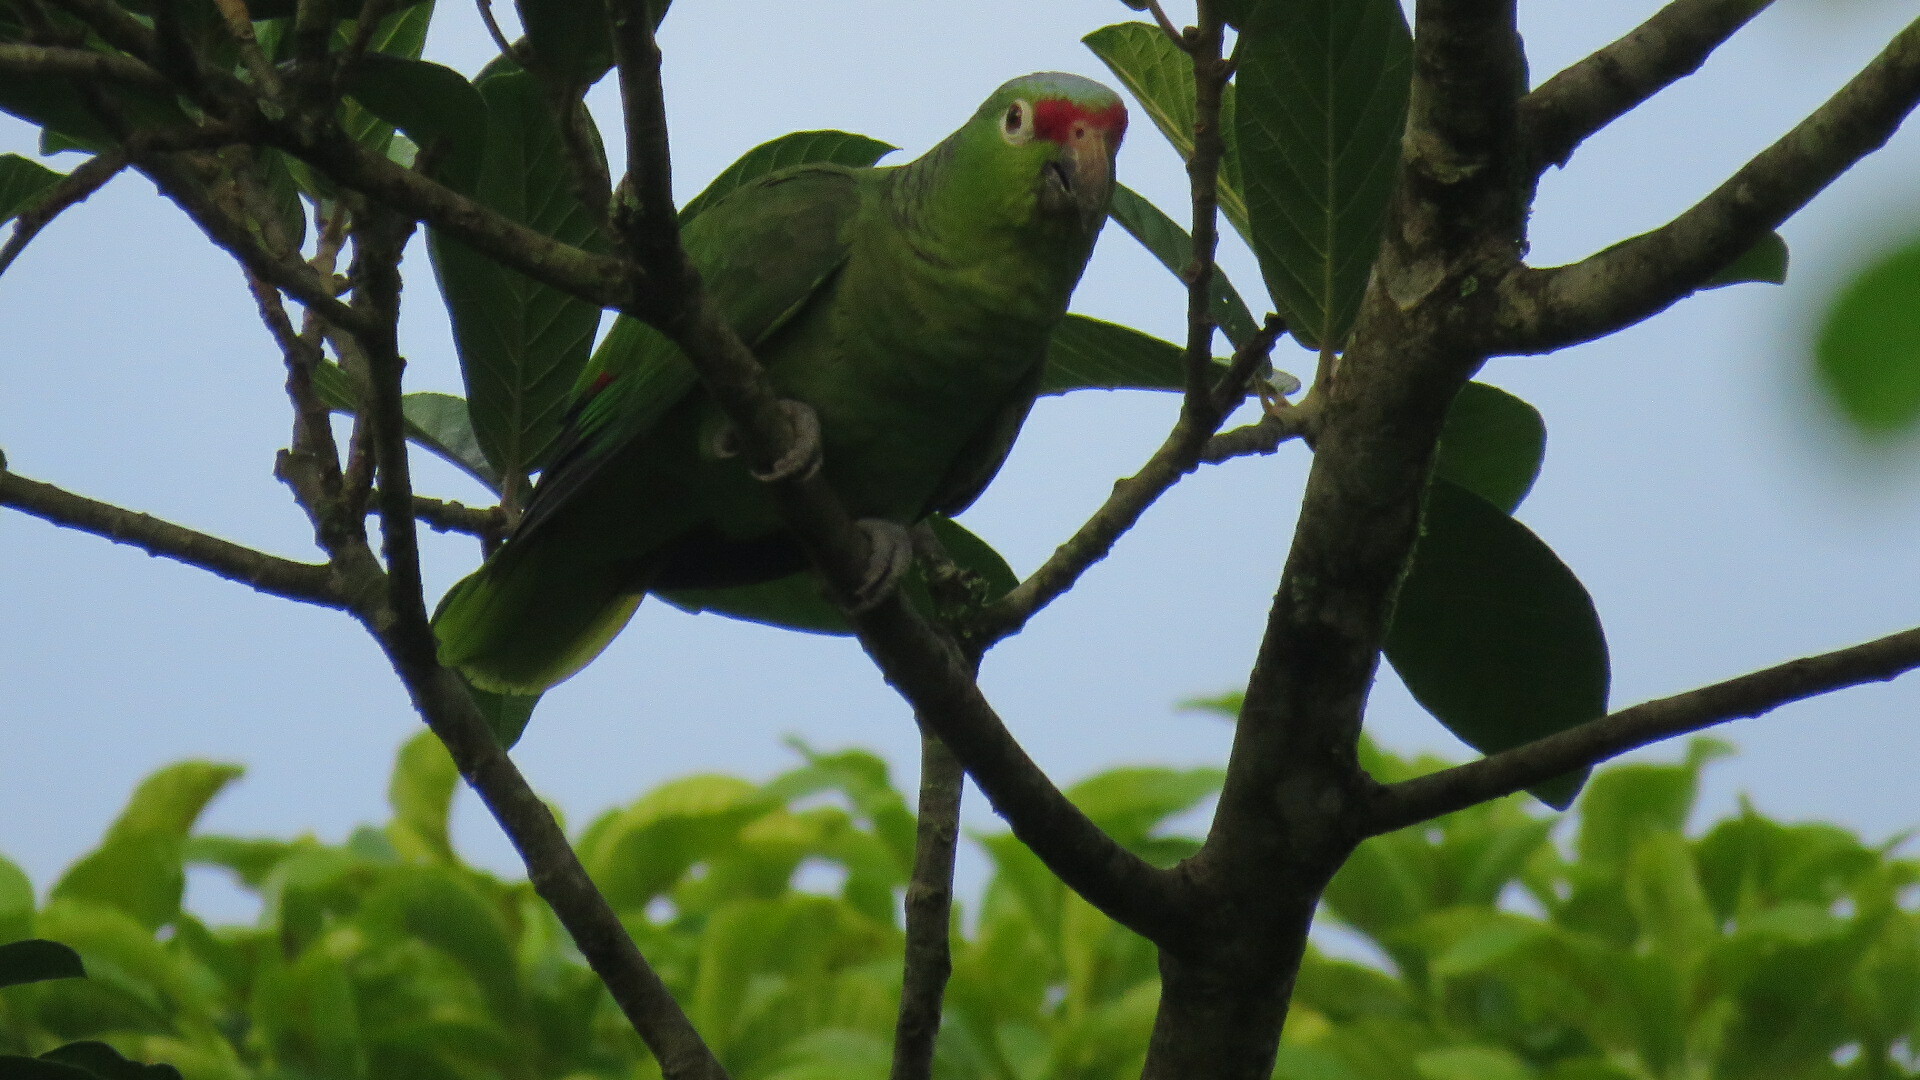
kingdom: Animalia
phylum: Chordata
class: Aves
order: Psittaciformes
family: Psittacidae
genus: Amazona
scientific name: Amazona autumnalis
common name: Red-lored amazon
